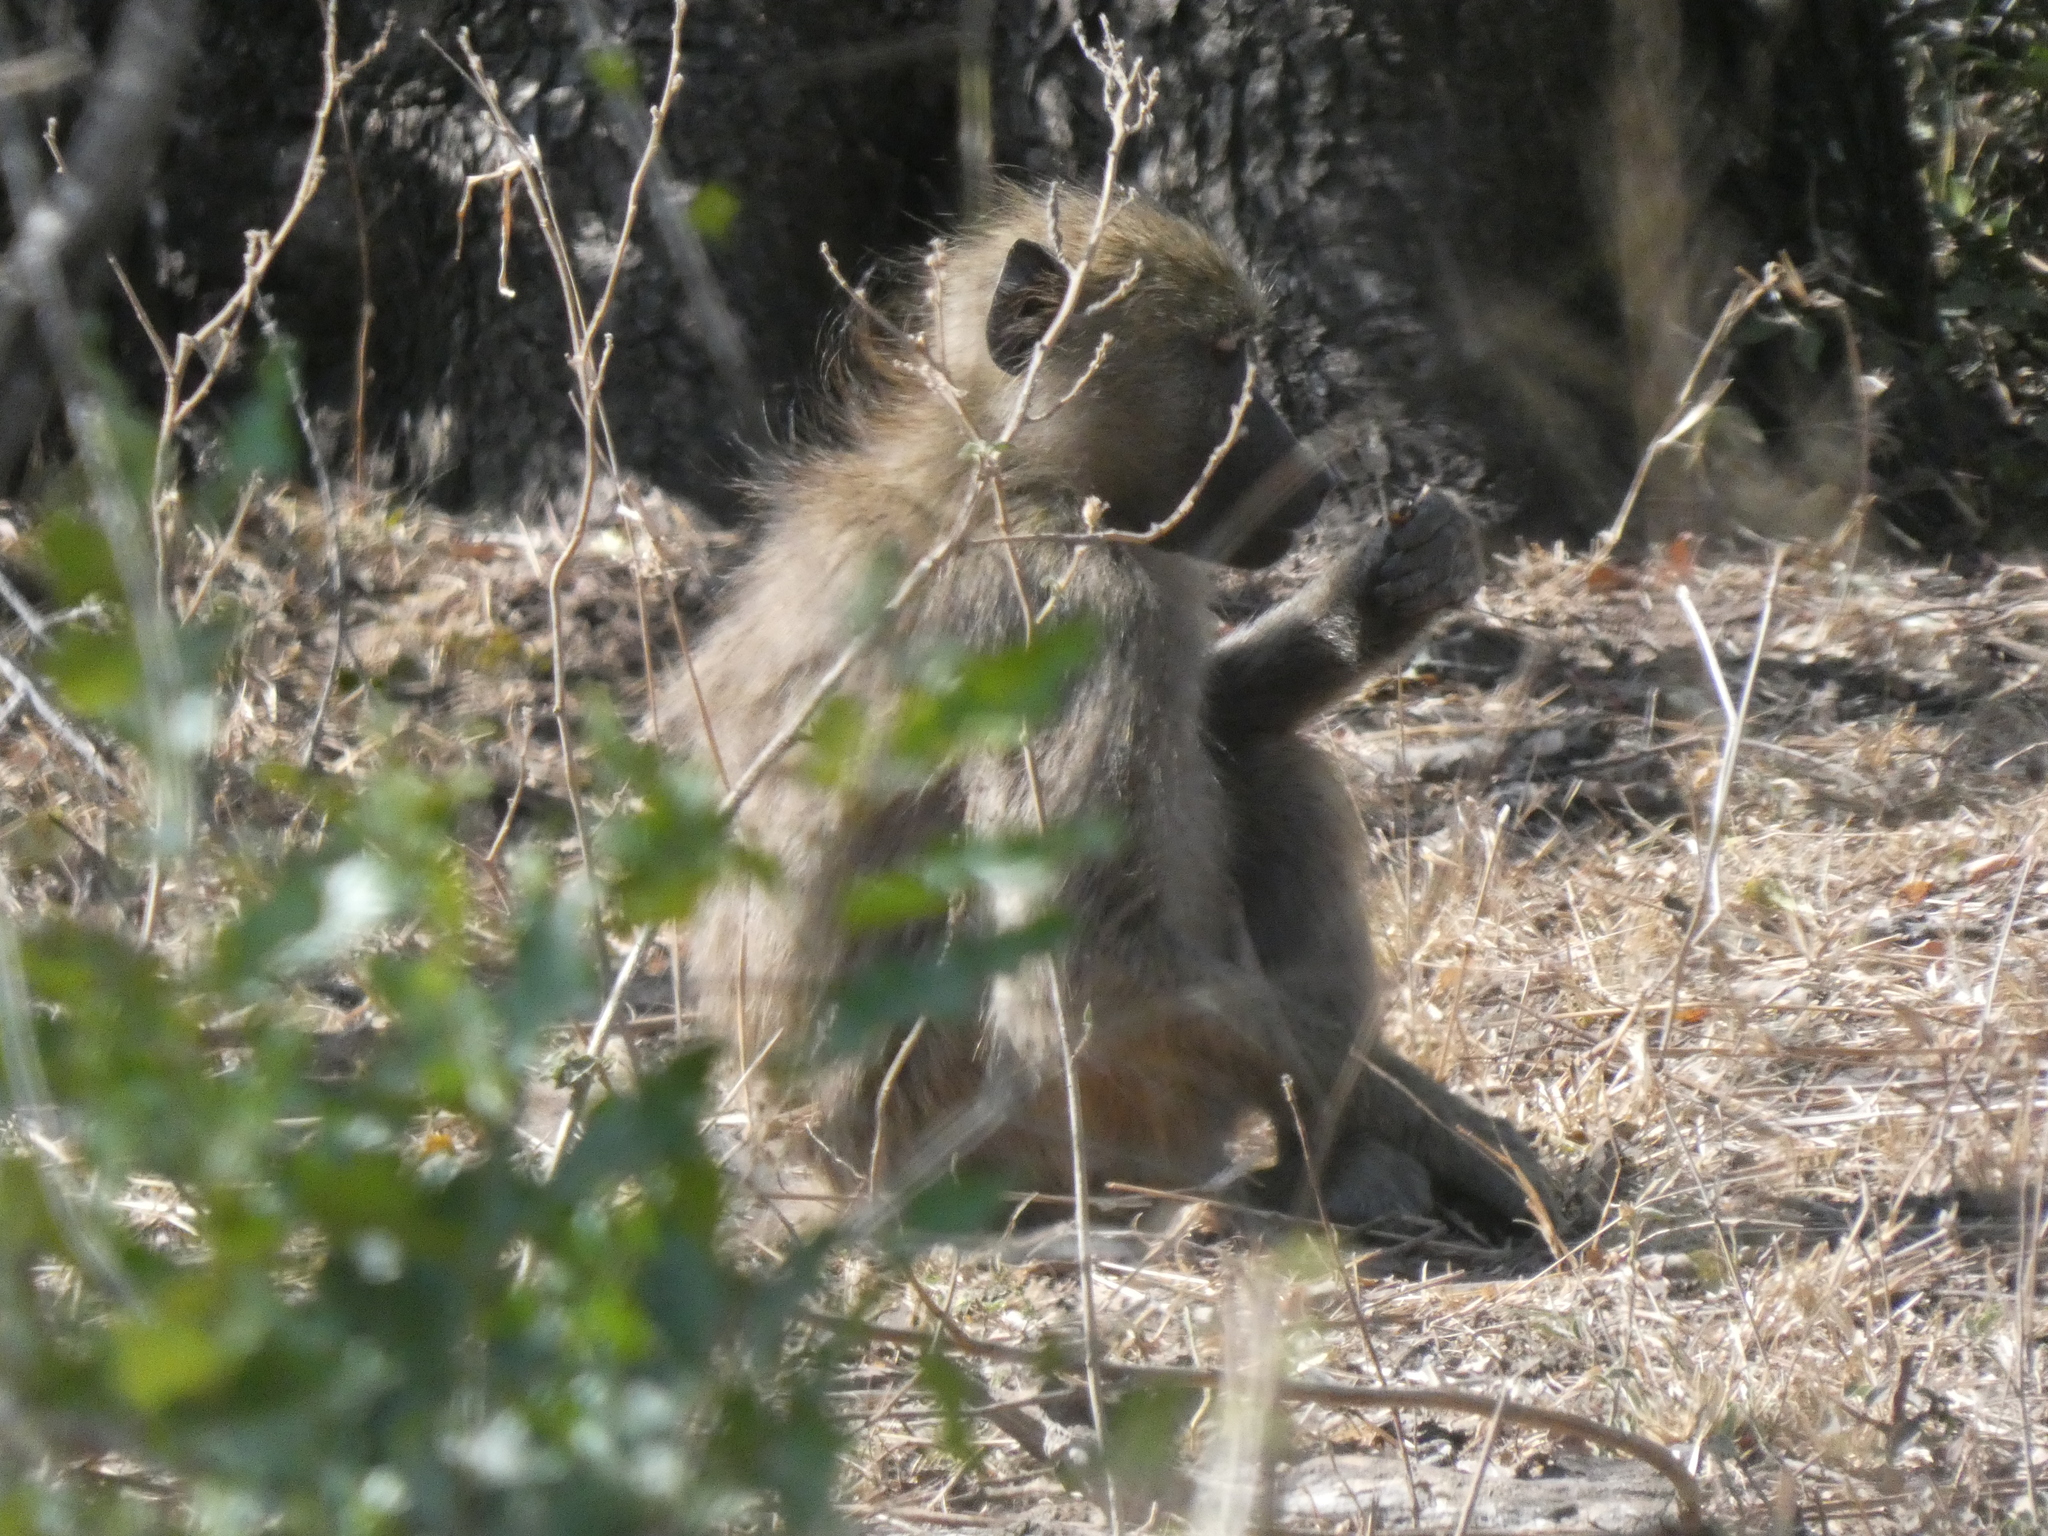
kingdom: Animalia
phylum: Chordata
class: Mammalia
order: Primates
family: Cercopithecidae
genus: Papio
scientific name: Papio ursinus
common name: Chacma baboon
